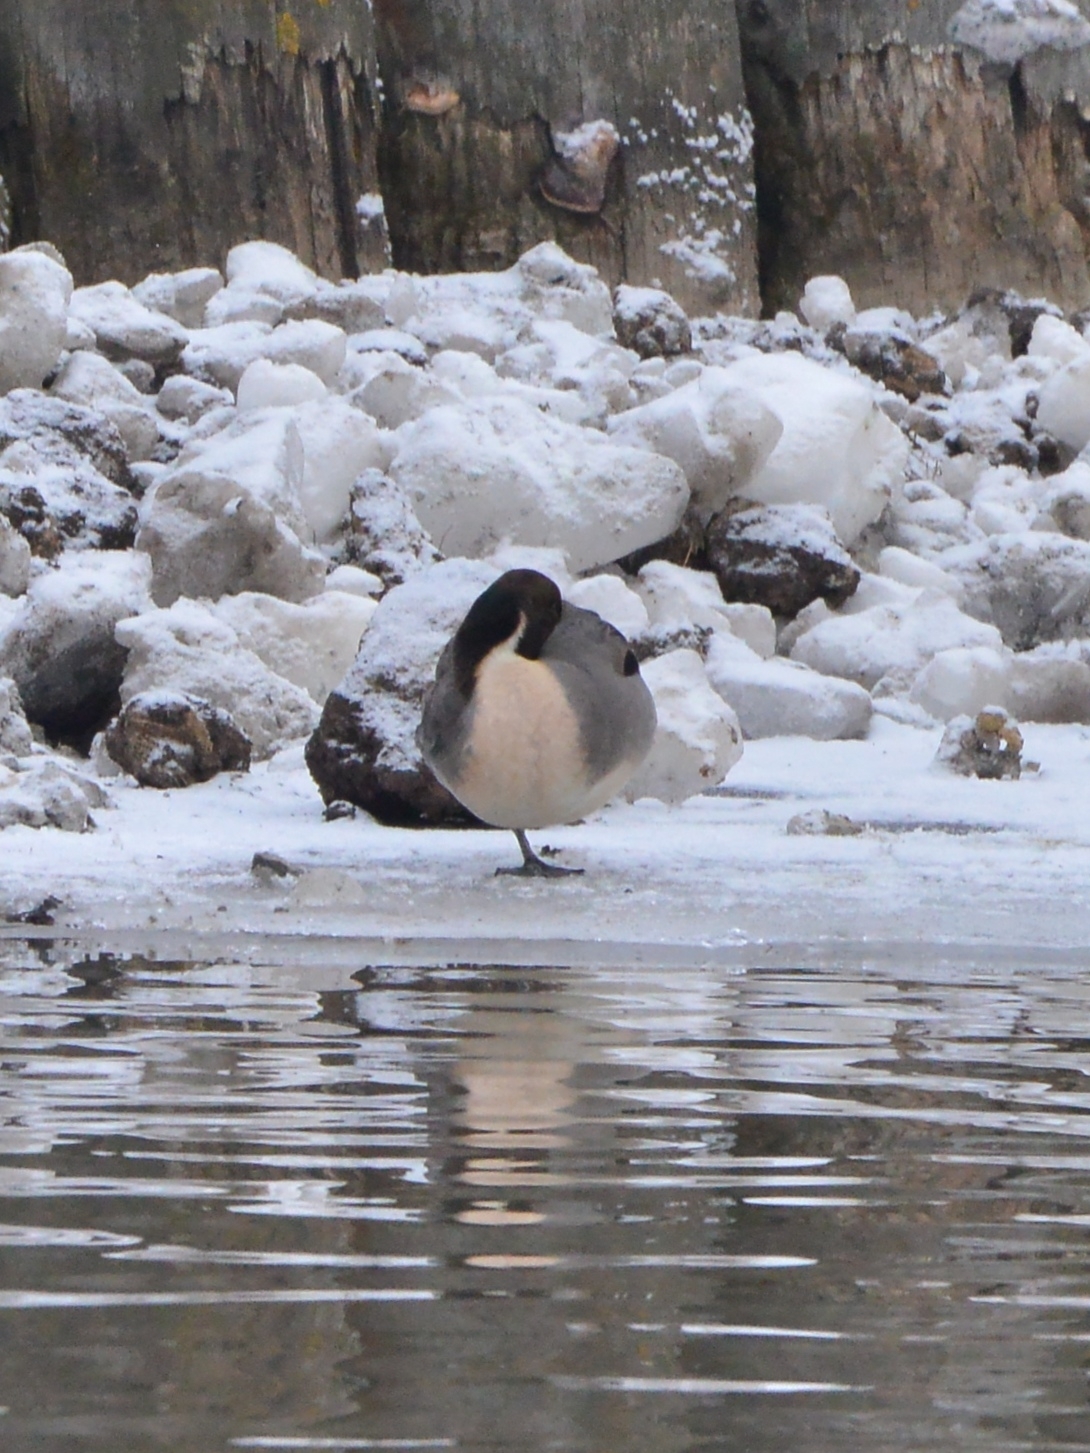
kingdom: Animalia
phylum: Chordata
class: Aves
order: Anseriformes
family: Anatidae
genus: Anas
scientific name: Anas acuta
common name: Northern pintail
